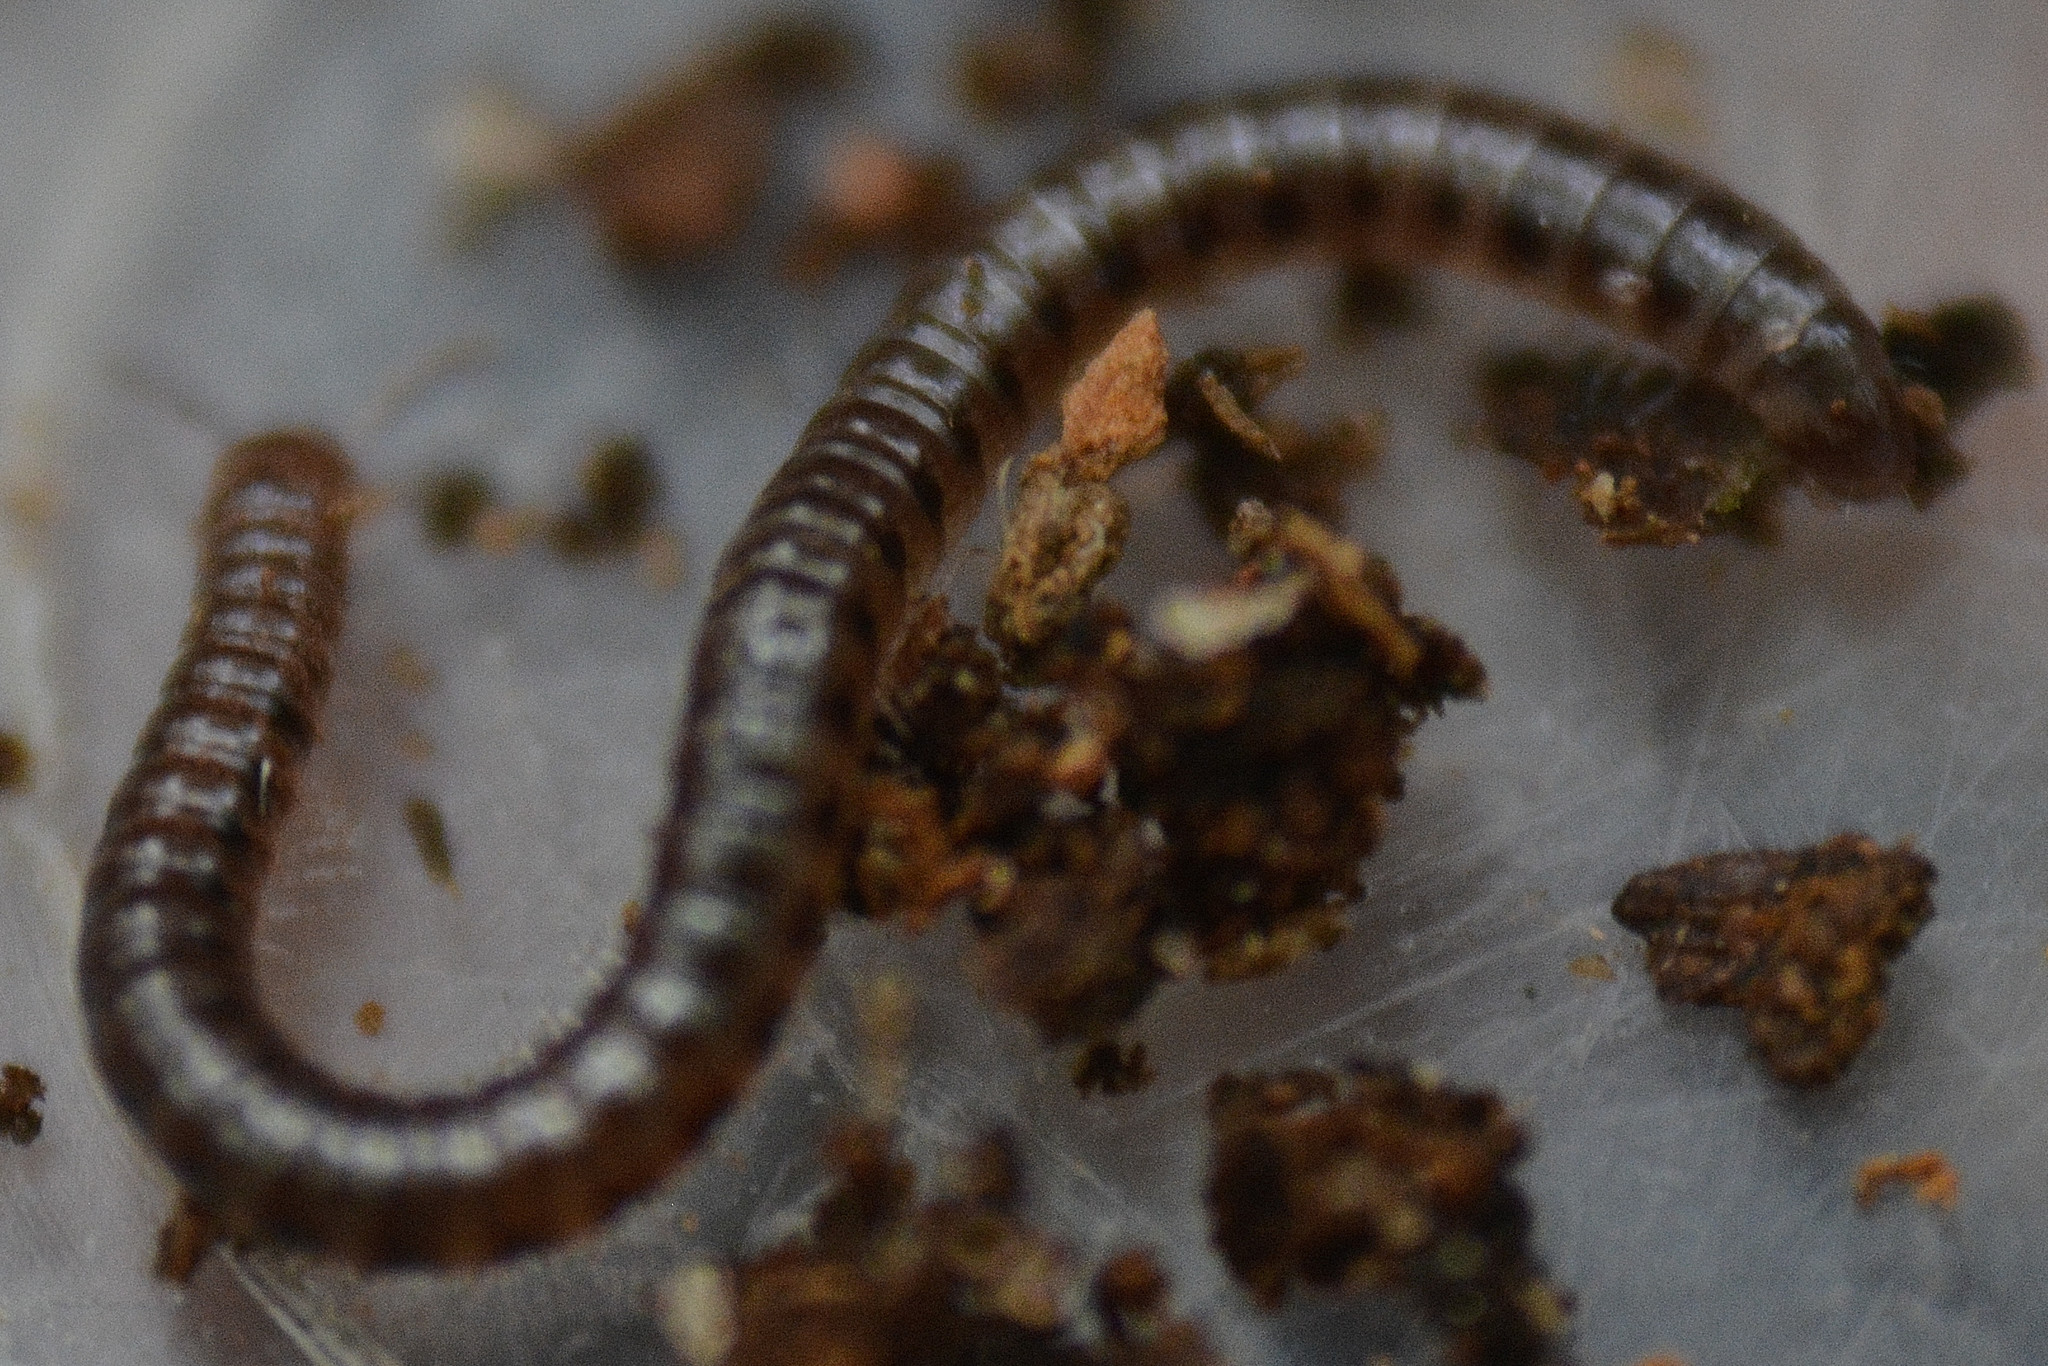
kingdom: Animalia
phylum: Arthropoda
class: Diplopoda
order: Julida
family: Blaniulidae
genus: Proteroiulus
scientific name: Proteroiulus fuscus
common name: Millipede
